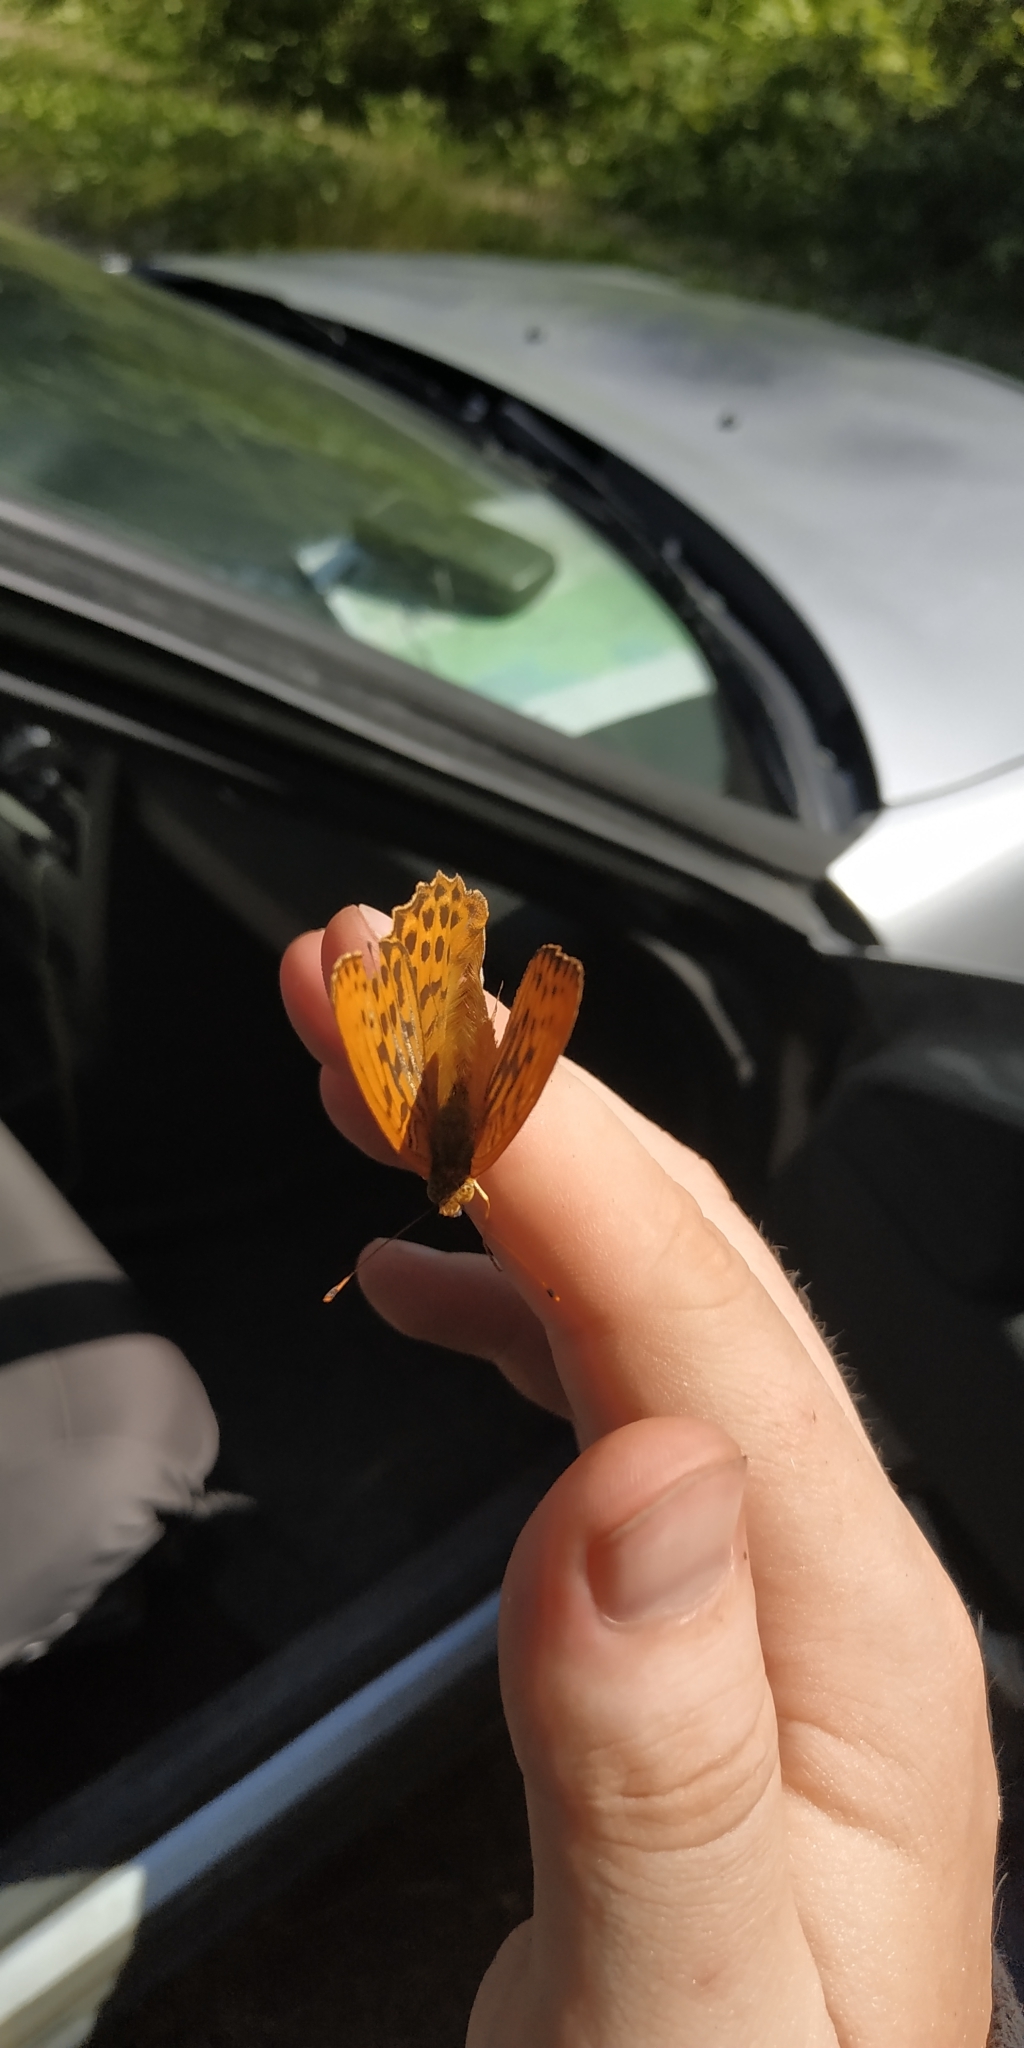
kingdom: Animalia
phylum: Arthropoda
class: Insecta
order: Lepidoptera
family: Nymphalidae
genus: Argynnis
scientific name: Argynnis paphia
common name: Silver-washed fritillary
